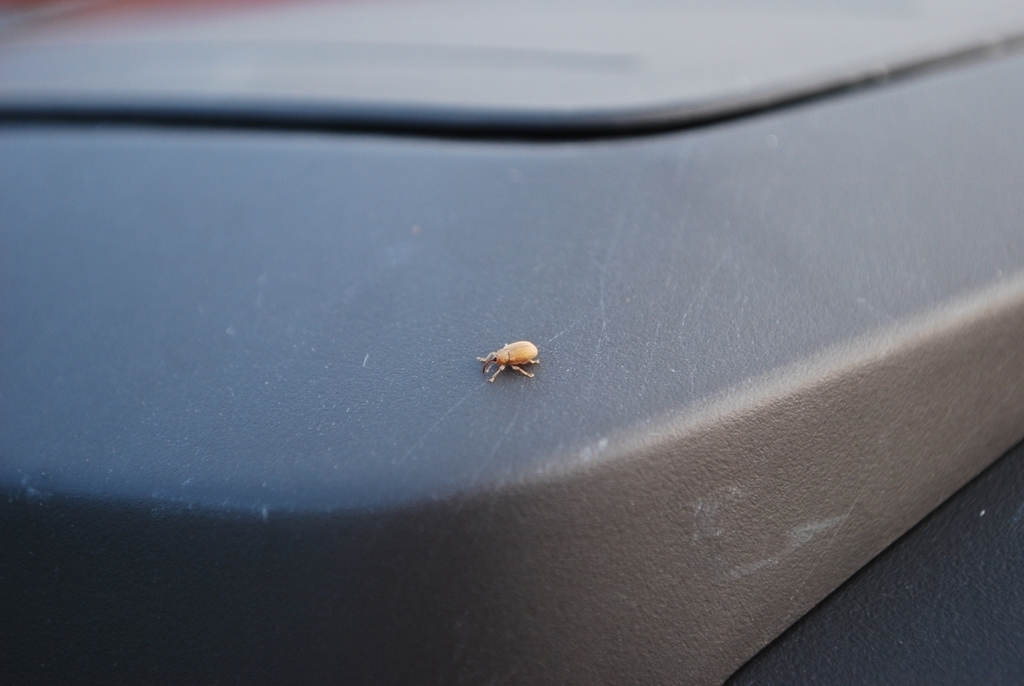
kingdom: Animalia
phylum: Arthropoda
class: Insecta
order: Coleoptera
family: Curculionidae
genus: Lignyodes
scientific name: Lignyodes helvolus
